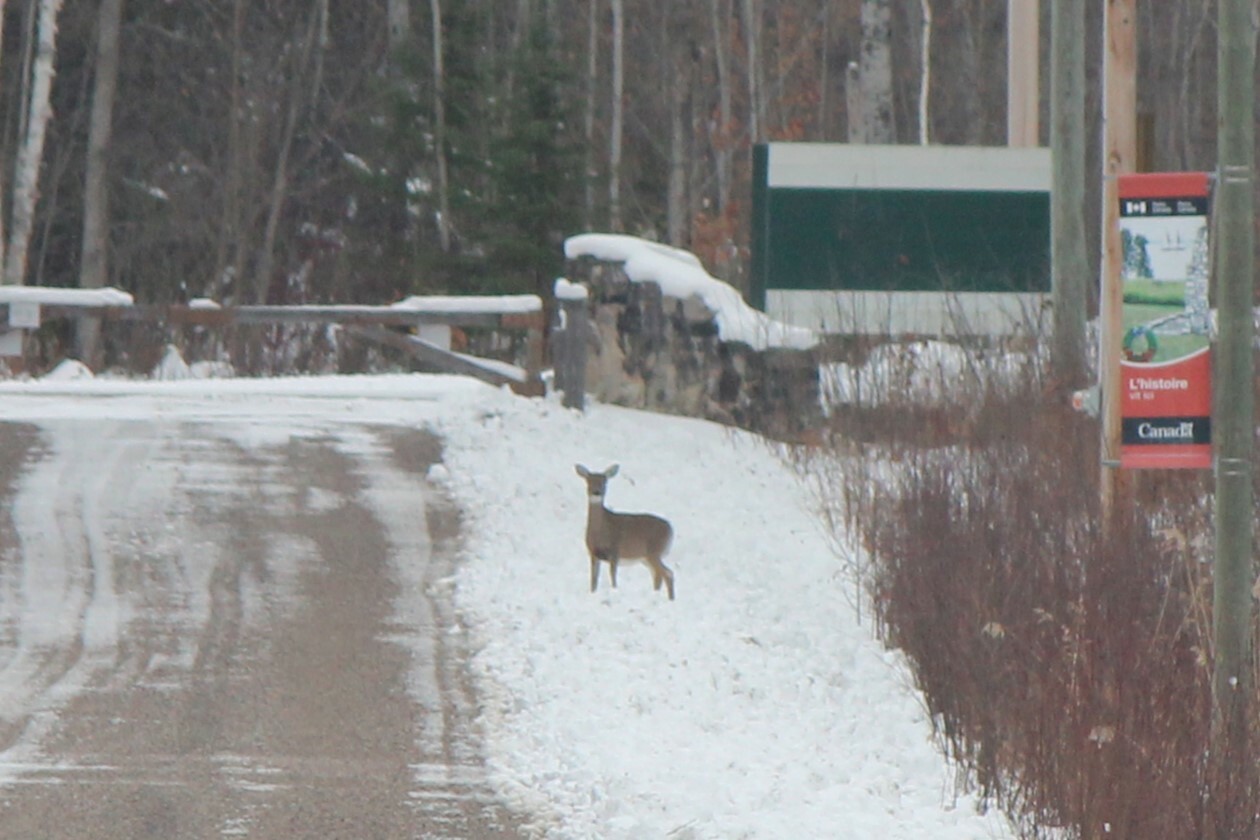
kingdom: Animalia
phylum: Chordata
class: Mammalia
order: Artiodactyla
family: Cervidae
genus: Odocoileus
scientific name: Odocoileus virginianus
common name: White-tailed deer
